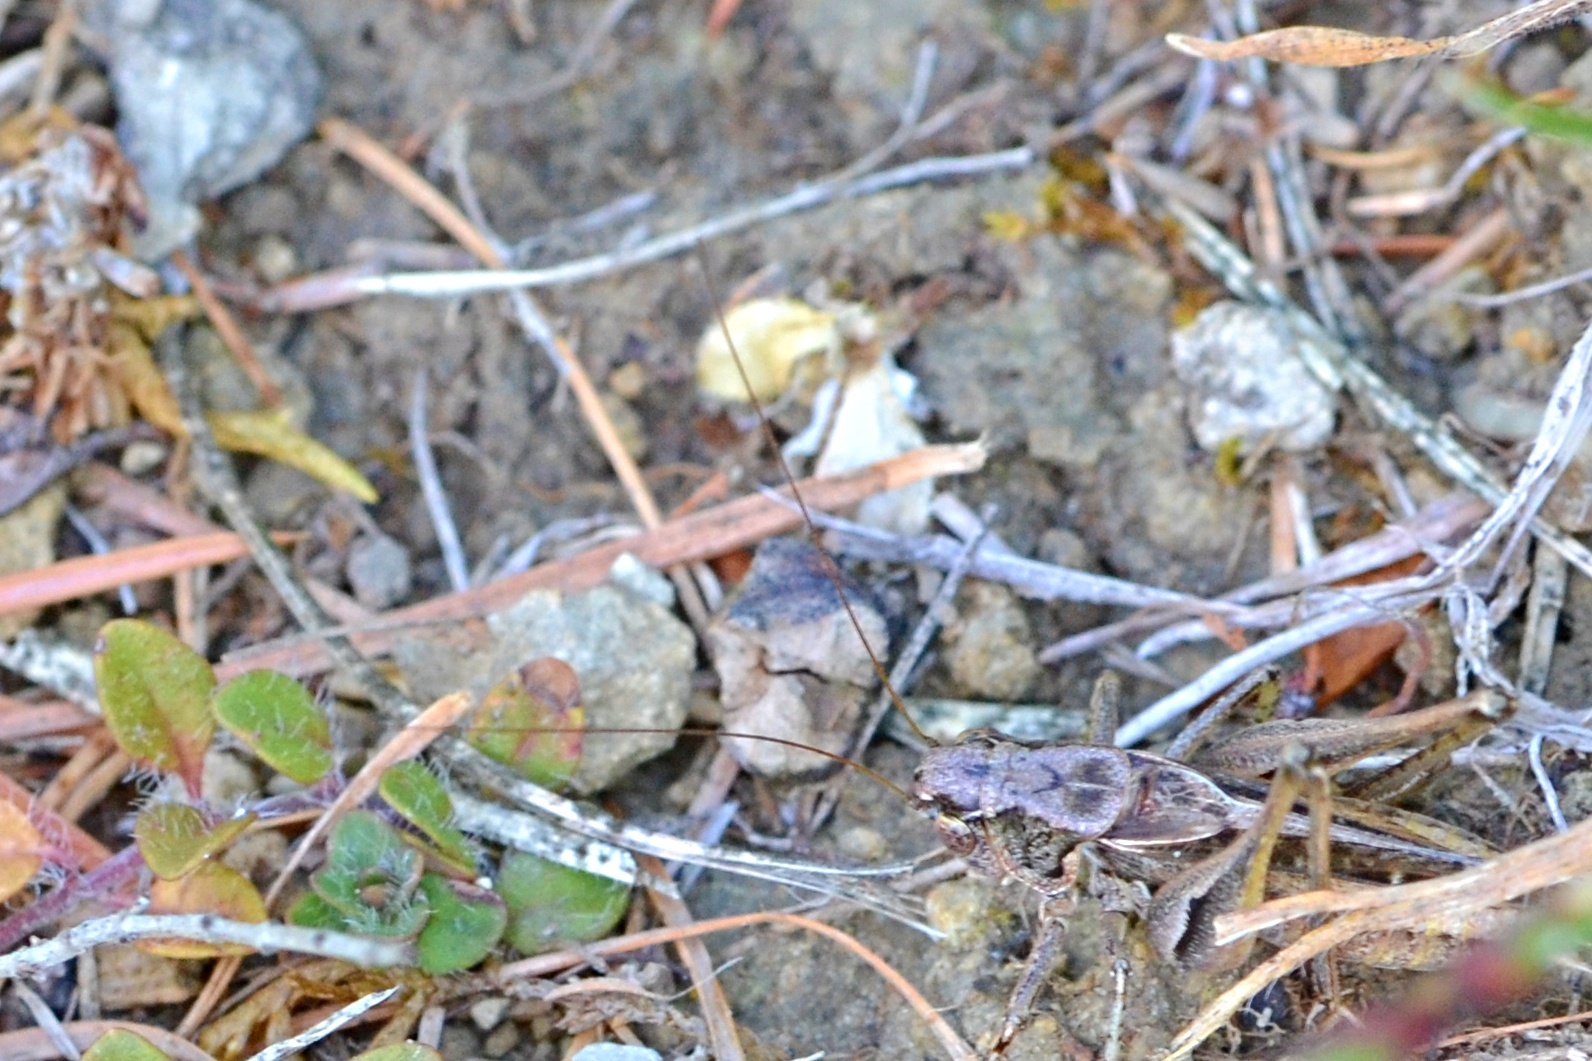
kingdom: Animalia
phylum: Arthropoda
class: Insecta
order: Orthoptera
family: Tettigoniidae
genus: Platycleis
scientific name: Platycleis albopunctata
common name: Grey bush-cricket
